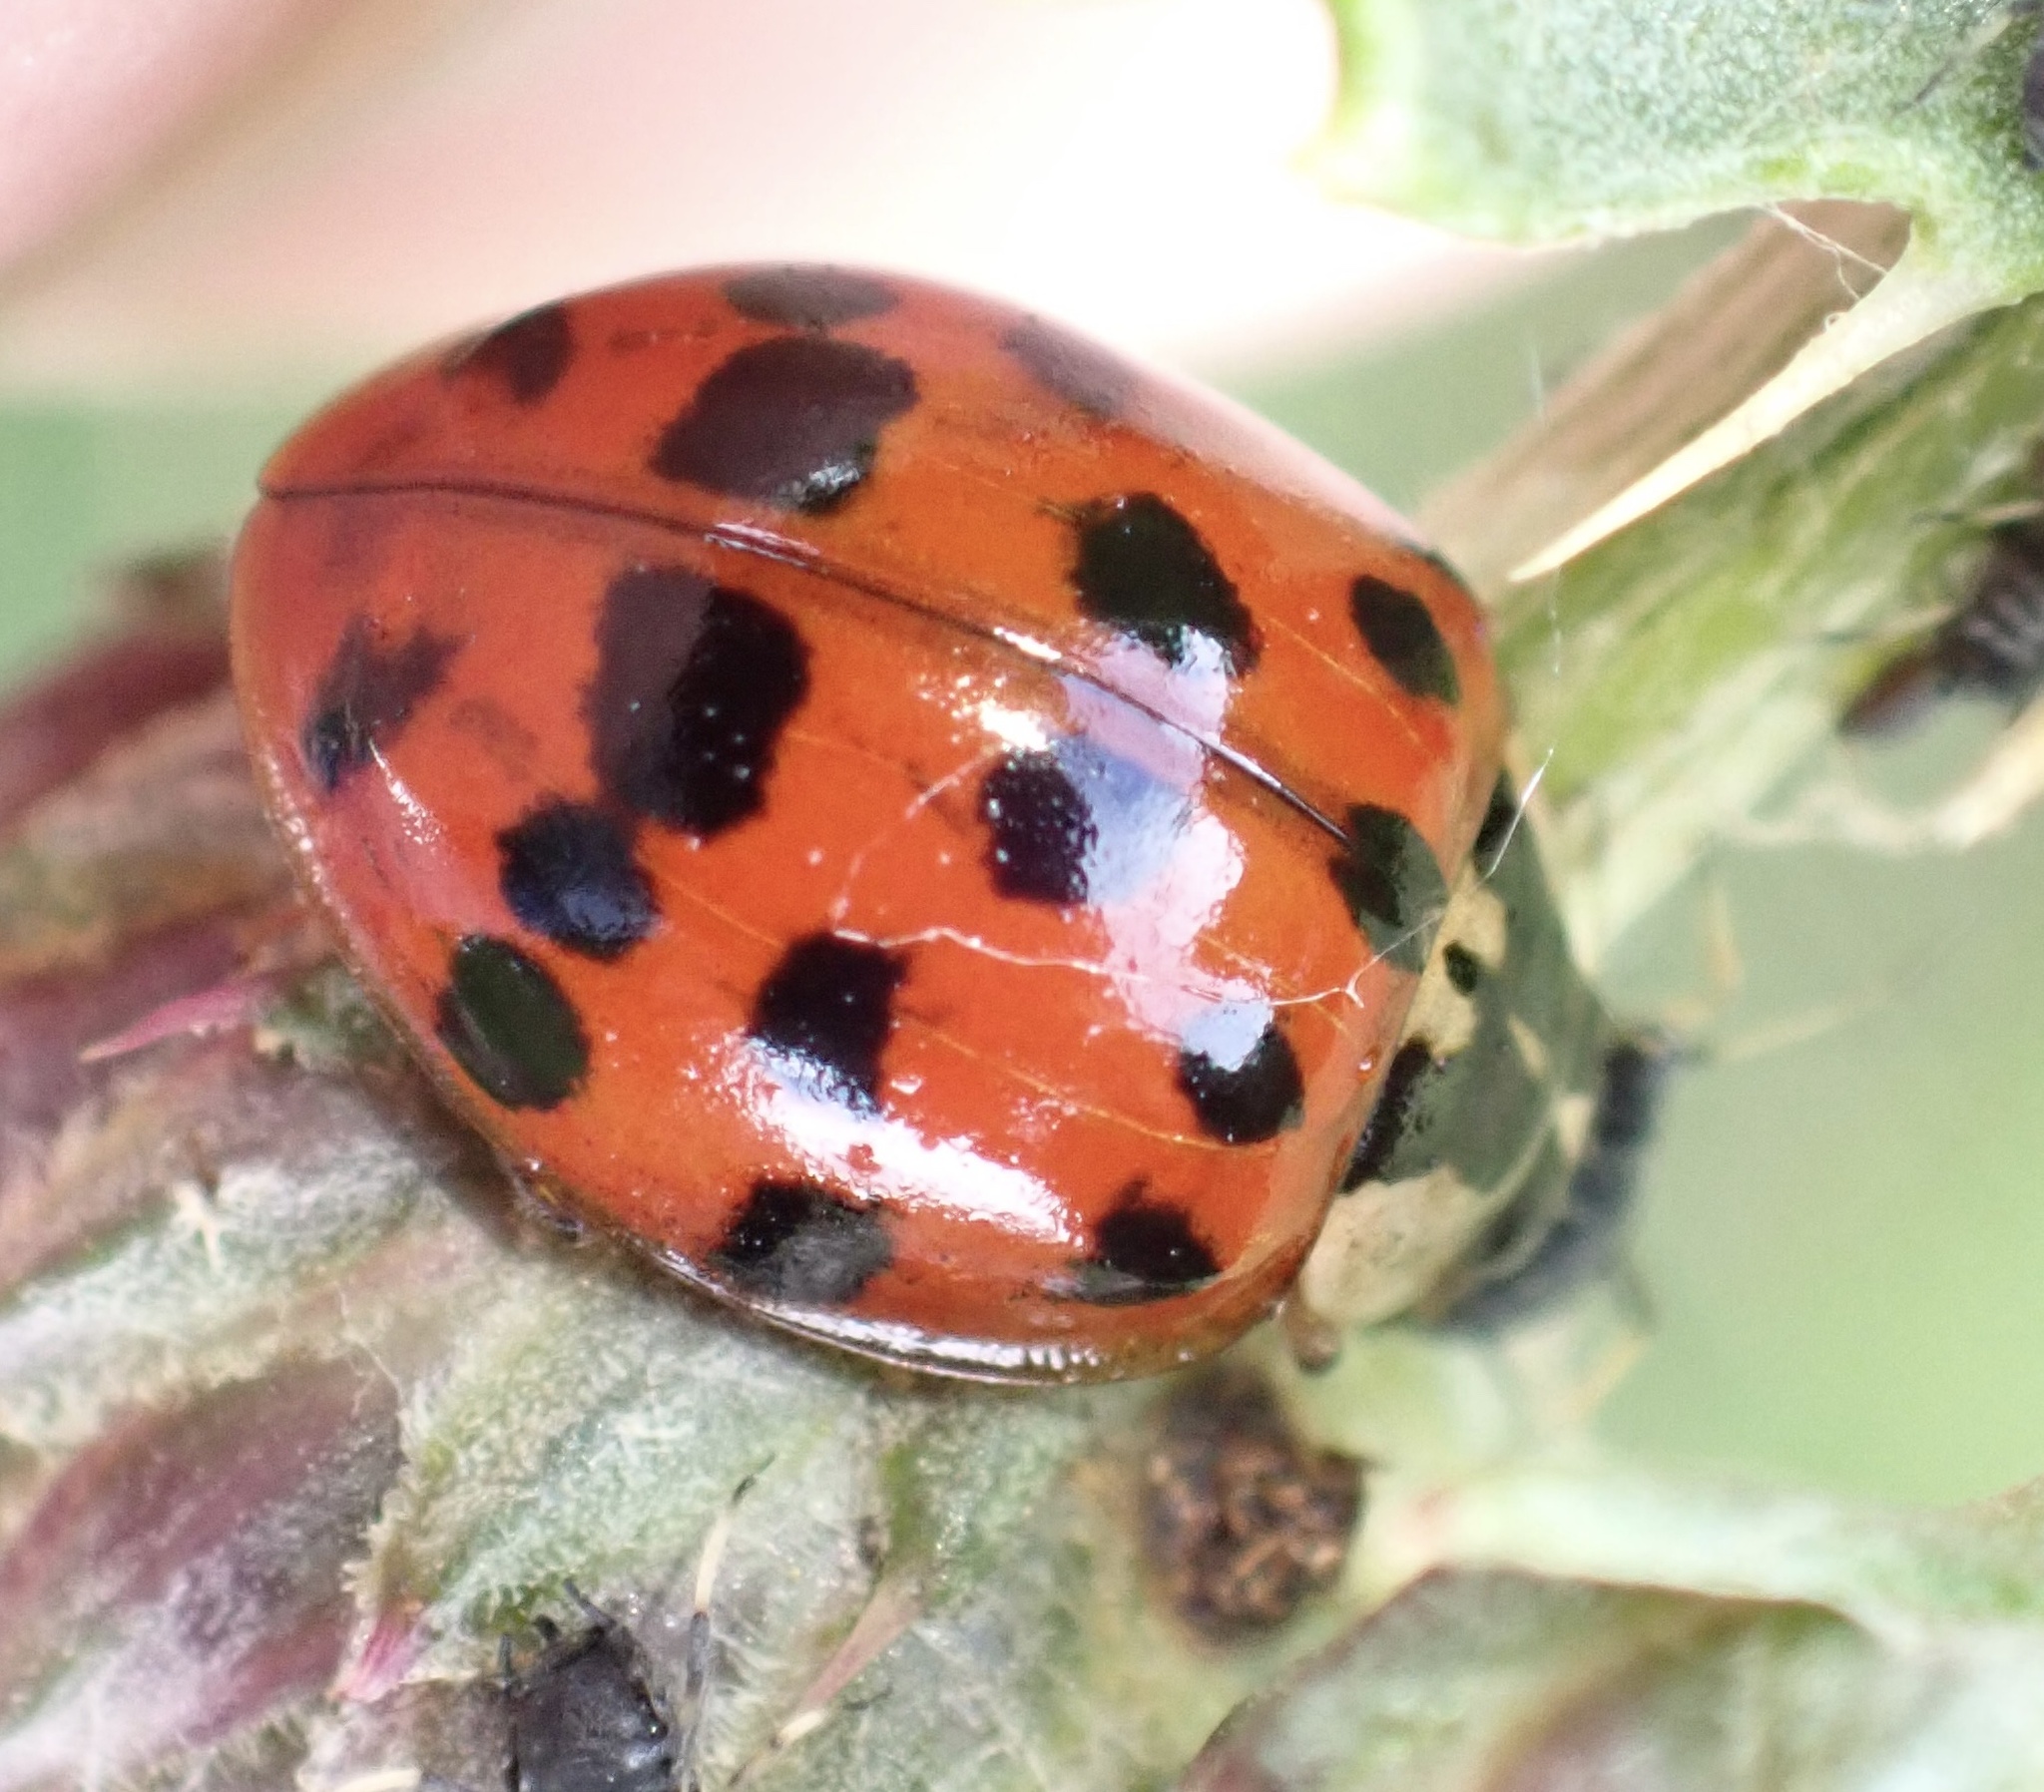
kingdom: Animalia
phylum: Arthropoda
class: Insecta
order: Coleoptera
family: Coccinellidae
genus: Harmonia
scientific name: Harmonia axyridis
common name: Harlequin ladybird
